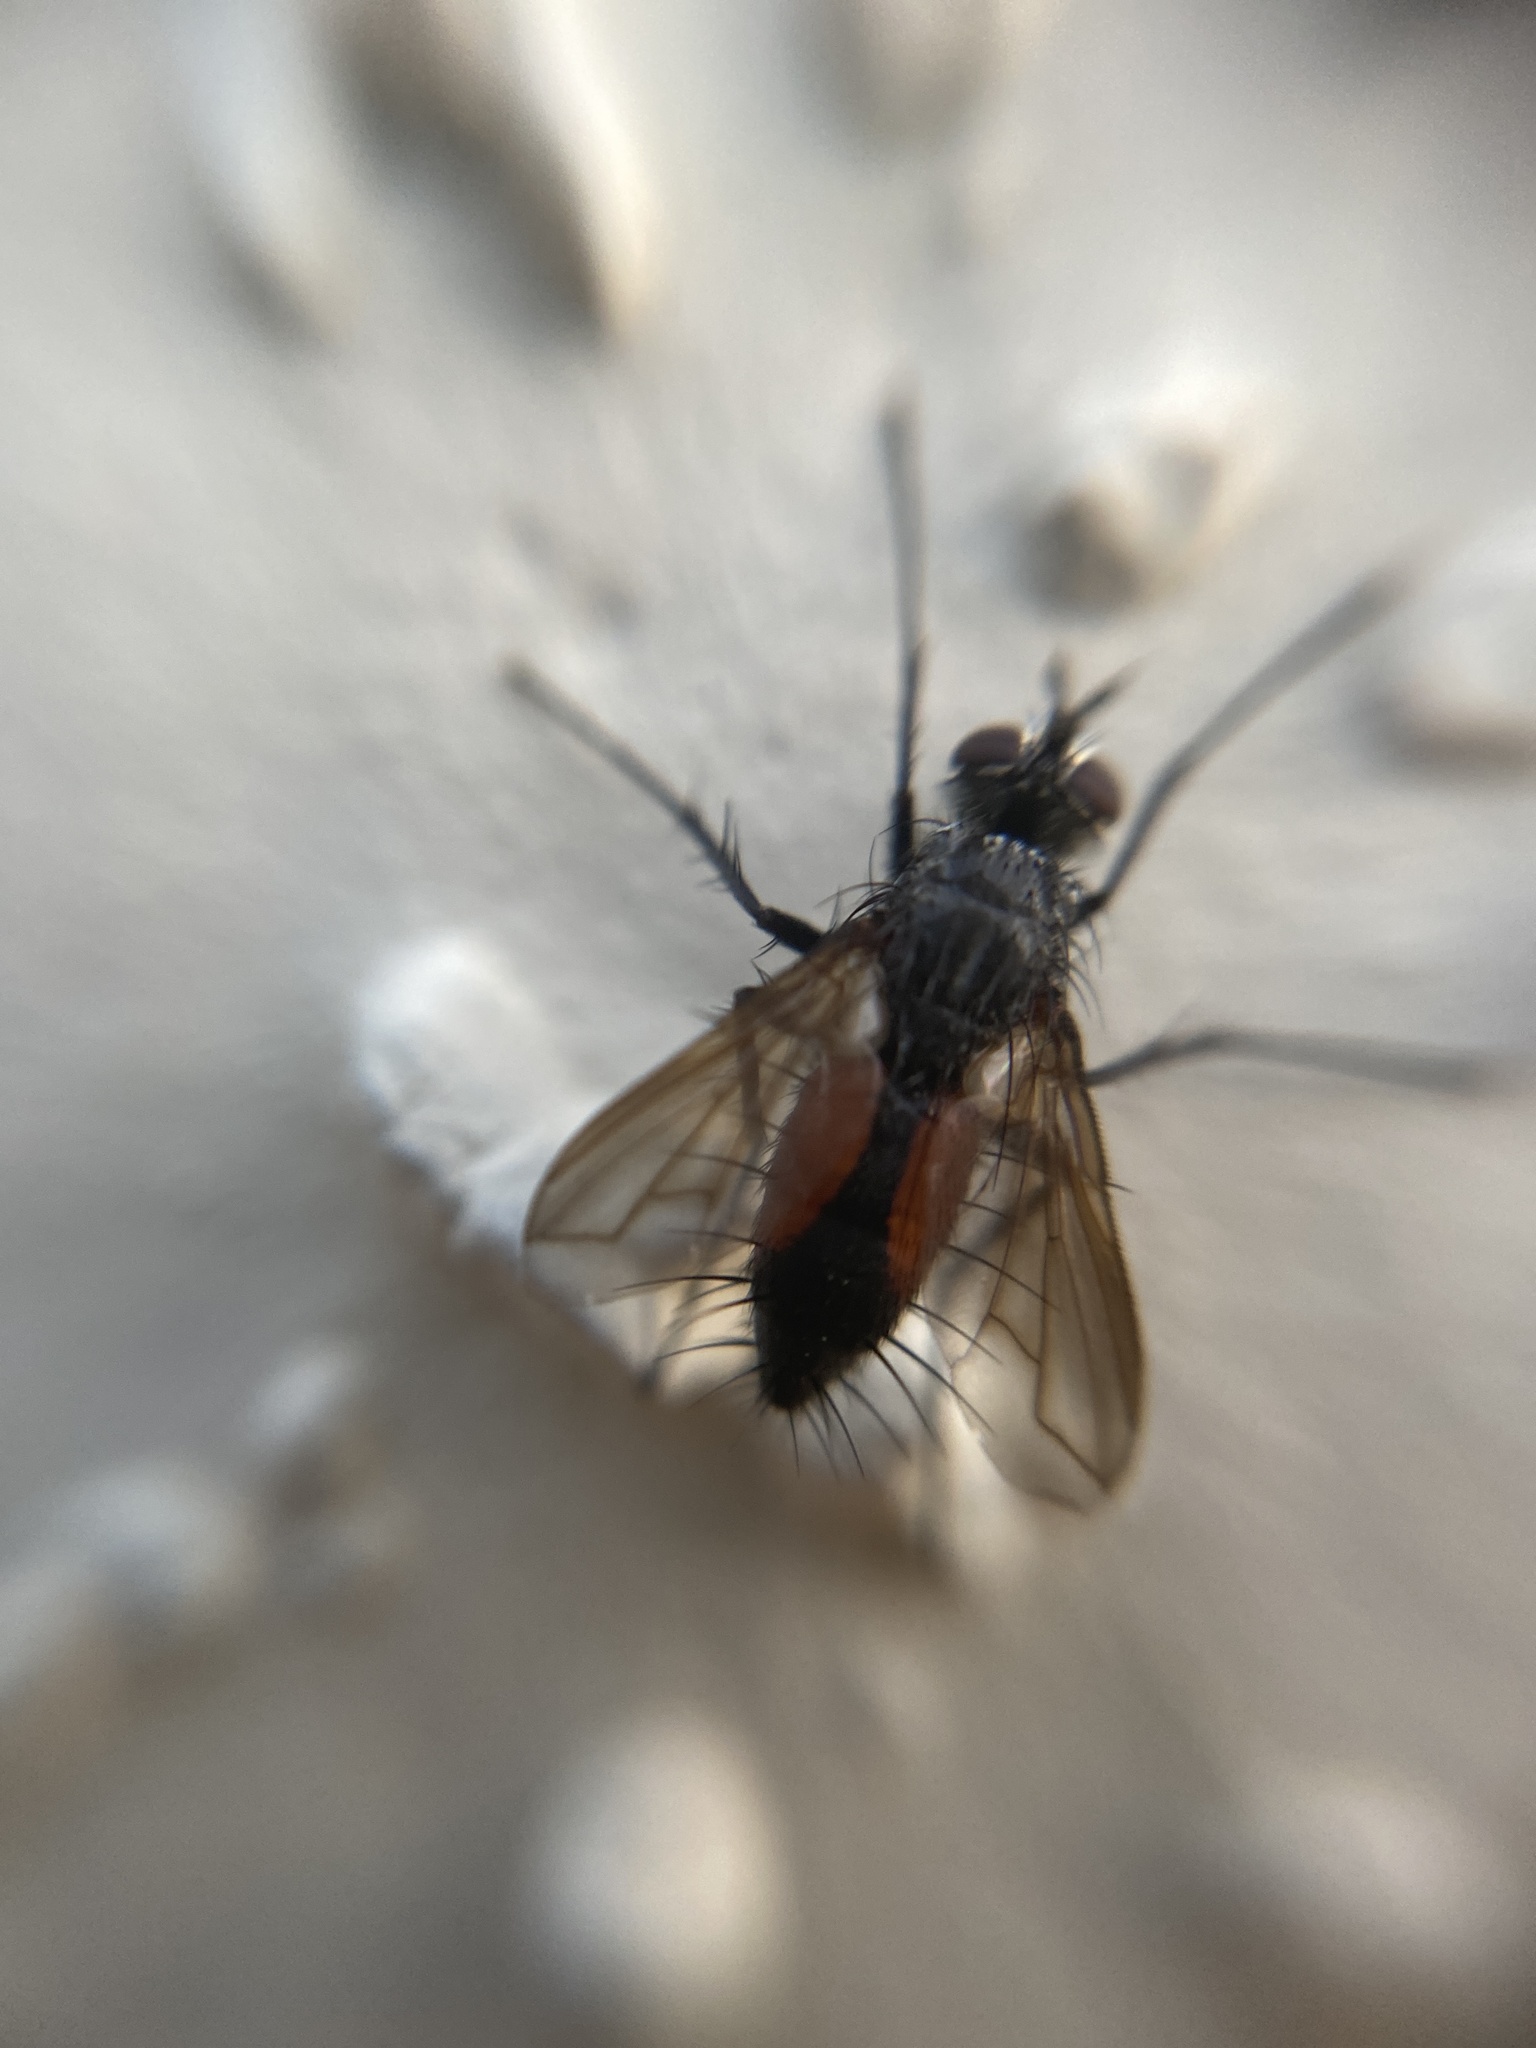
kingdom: Animalia
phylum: Arthropoda
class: Insecta
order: Diptera
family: Tachinidae
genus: Eriothrix
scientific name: Eriothrix rufomaculatus
